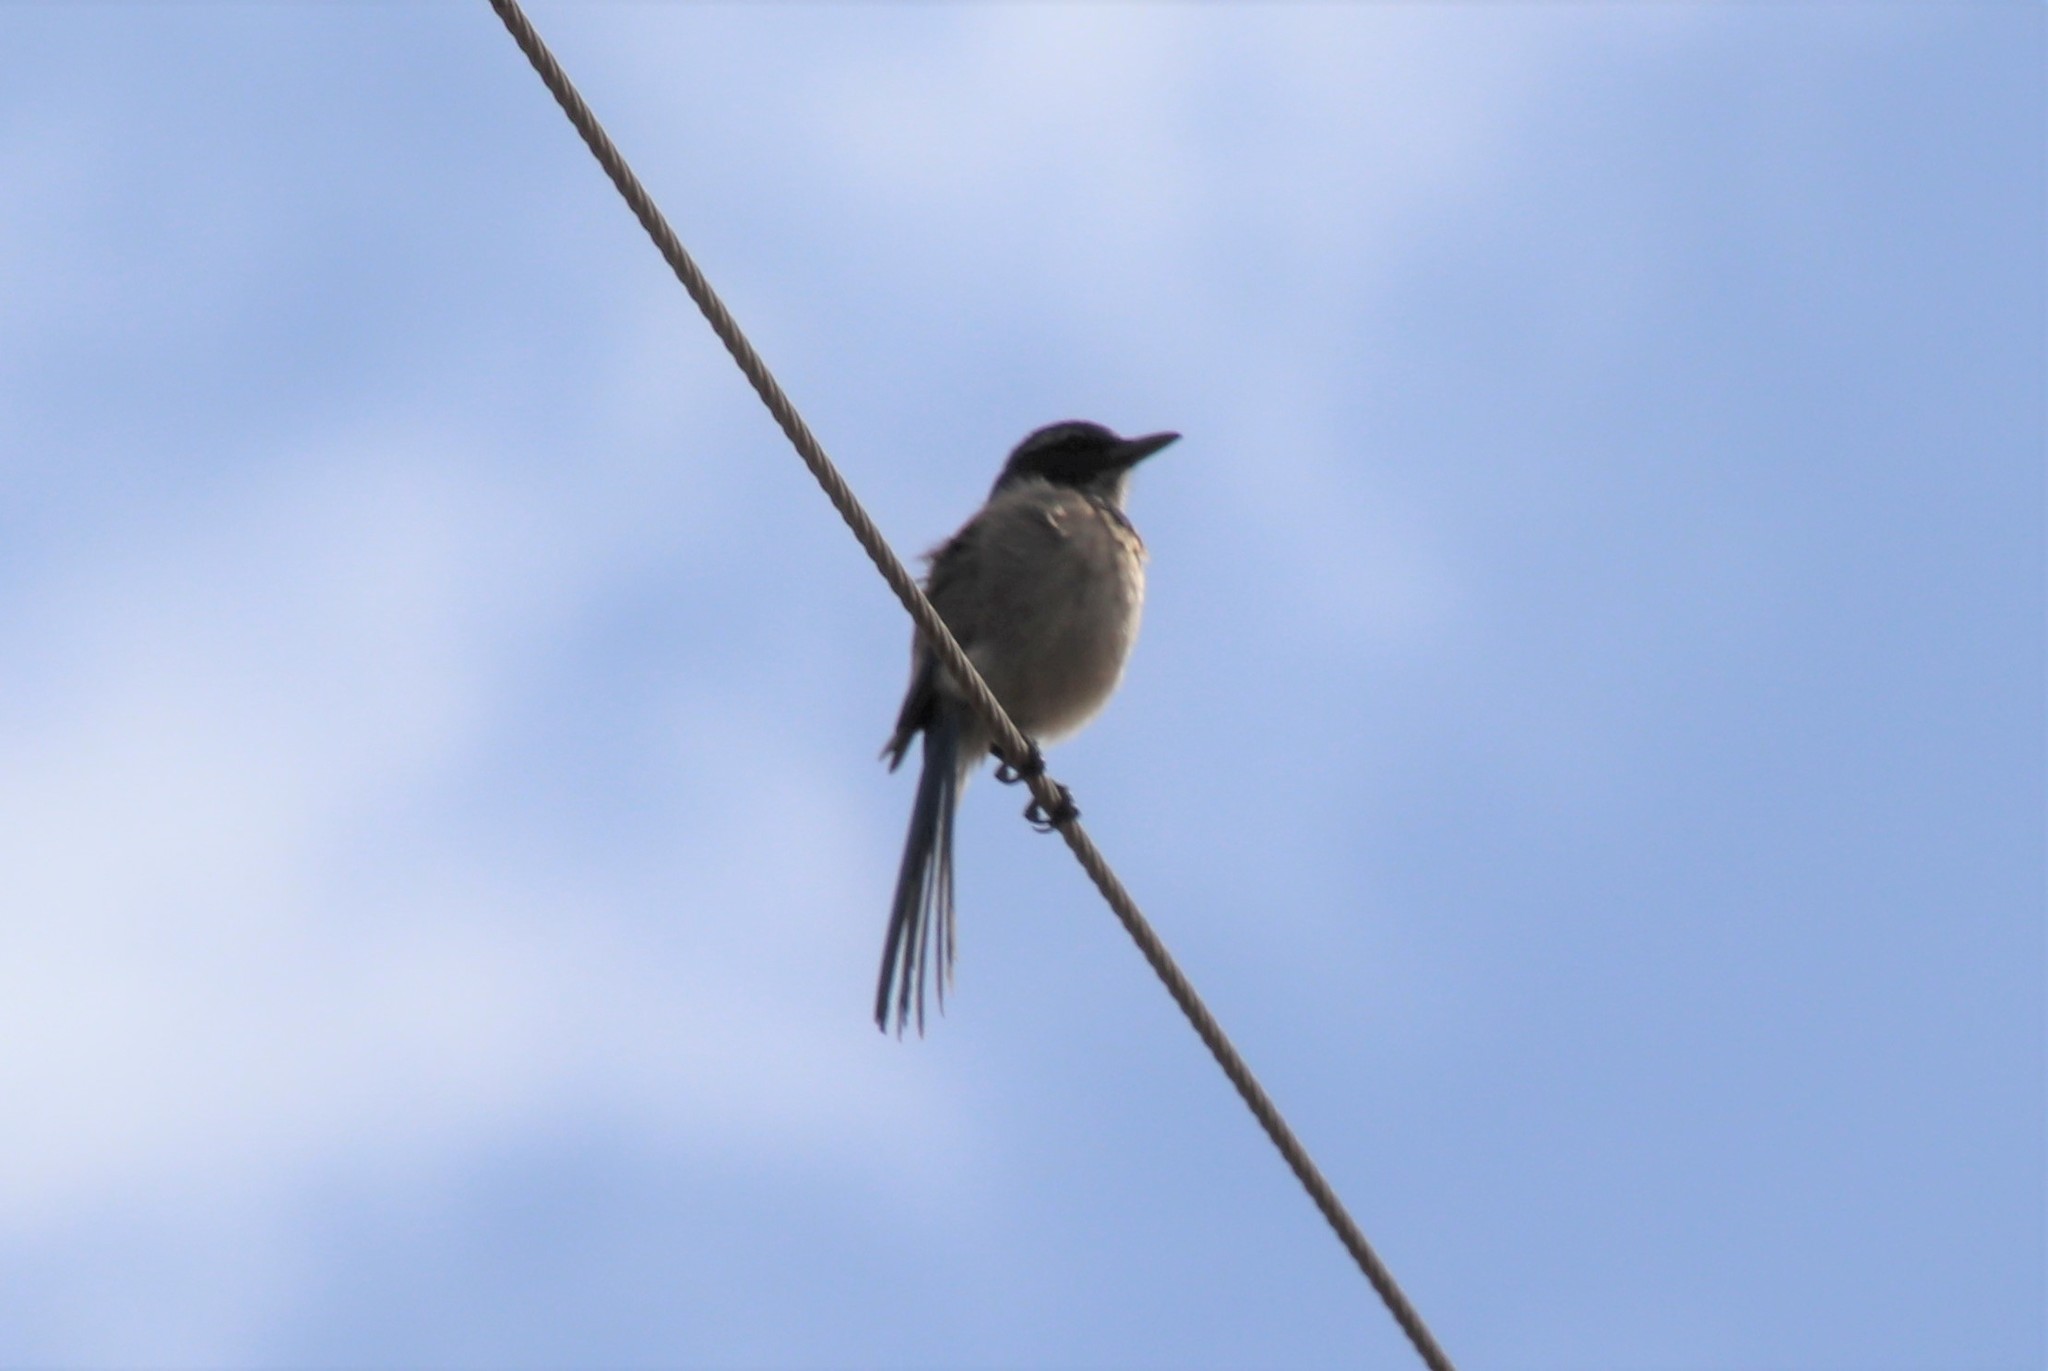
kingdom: Animalia
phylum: Chordata
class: Aves
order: Passeriformes
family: Corvidae
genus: Aphelocoma
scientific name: Aphelocoma californica
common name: California scrub-jay
